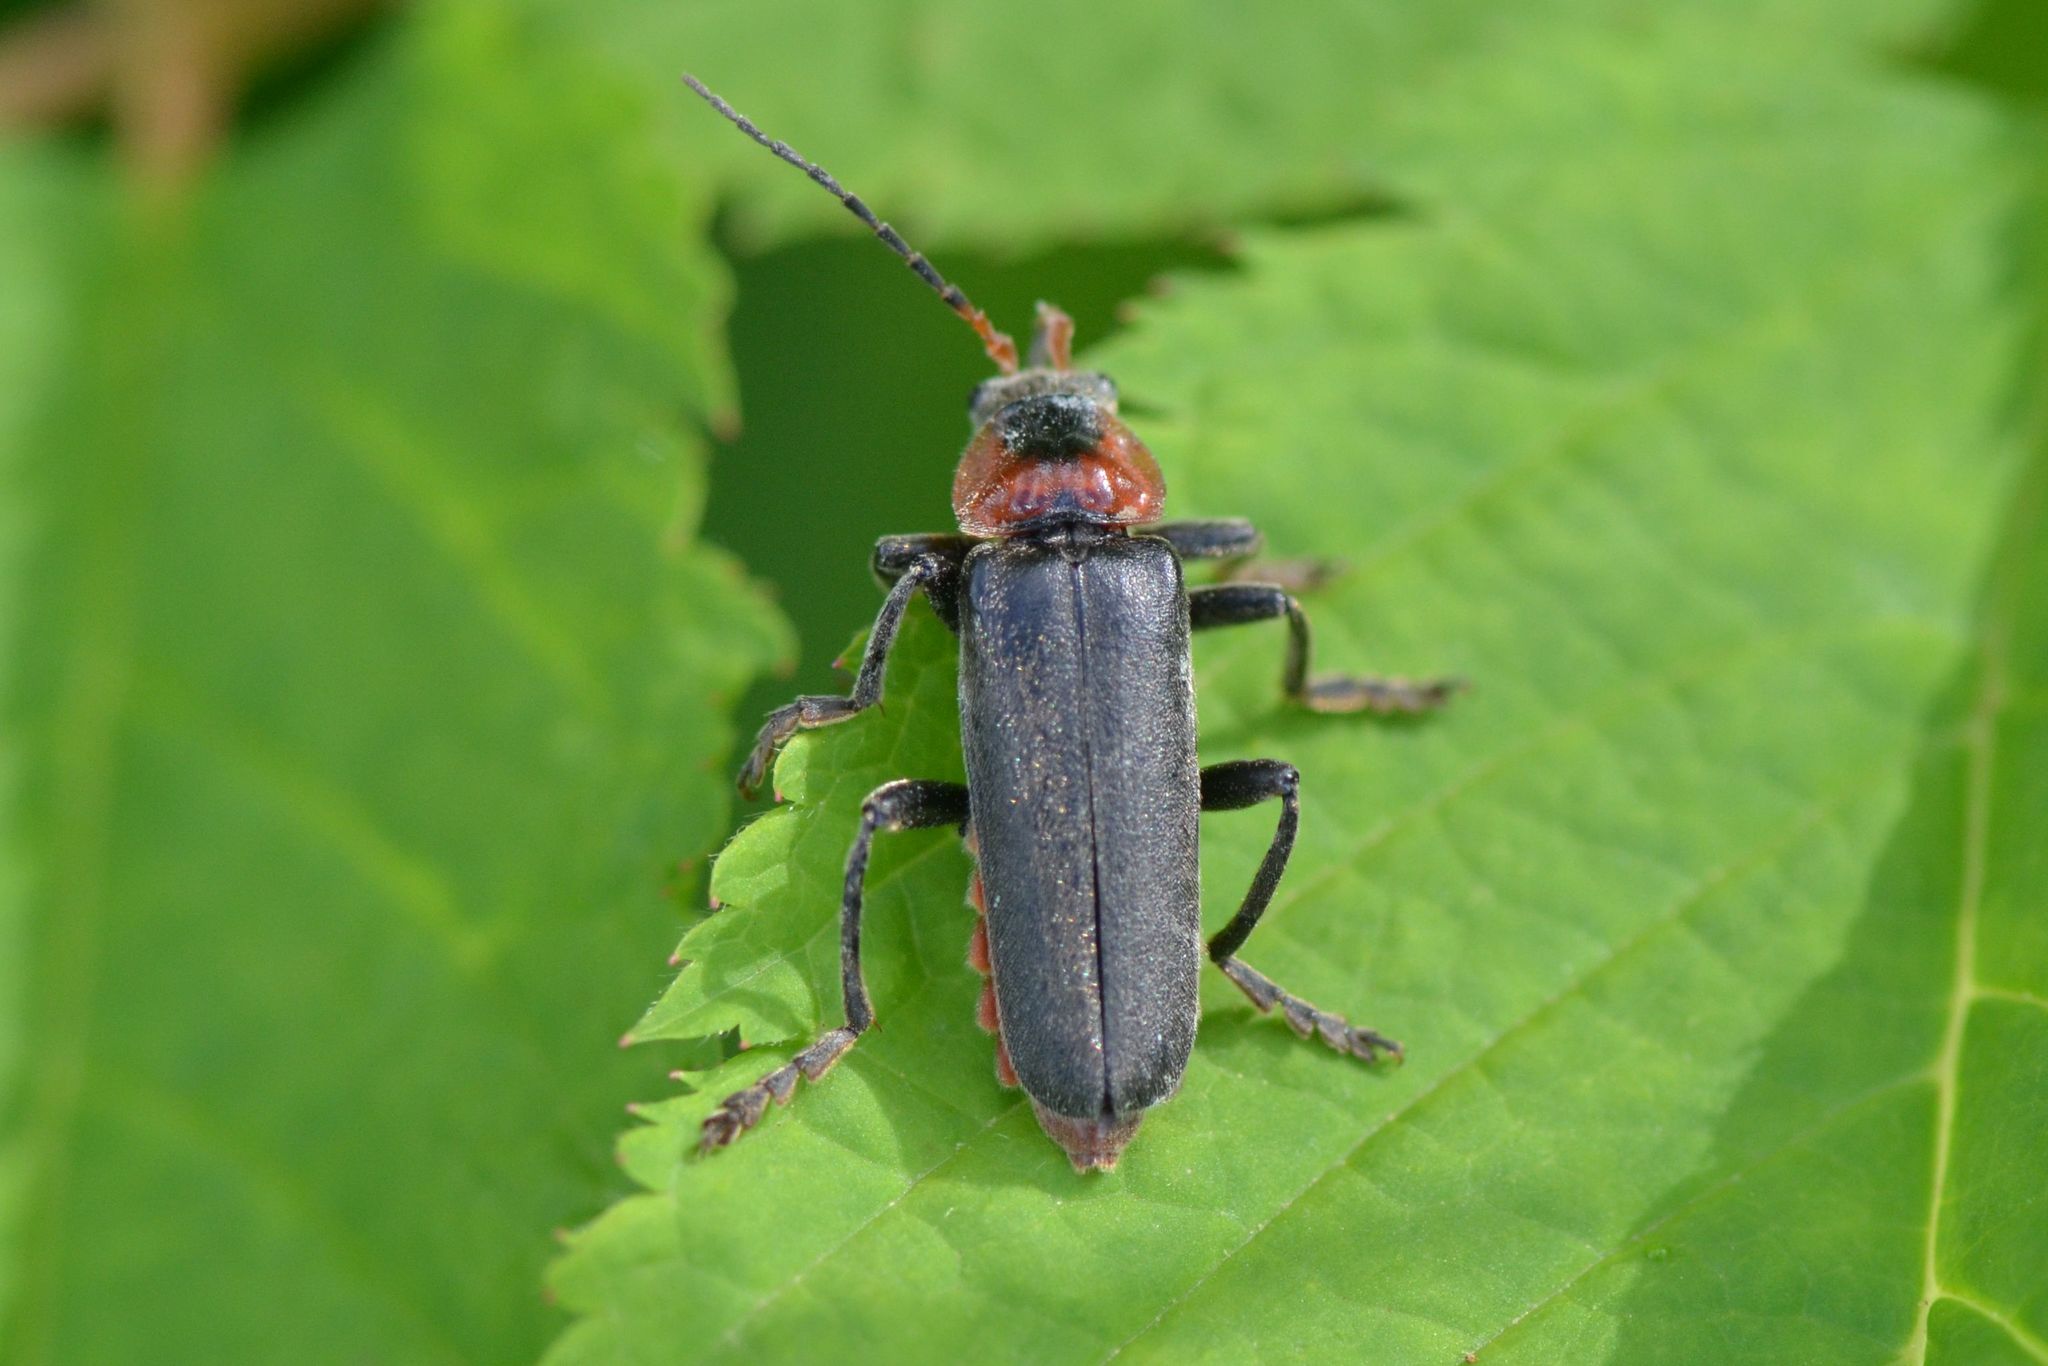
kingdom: Animalia
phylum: Arthropoda
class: Insecta
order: Coleoptera
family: Cantharidae
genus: Cantharis
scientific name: Cantharis fusca
